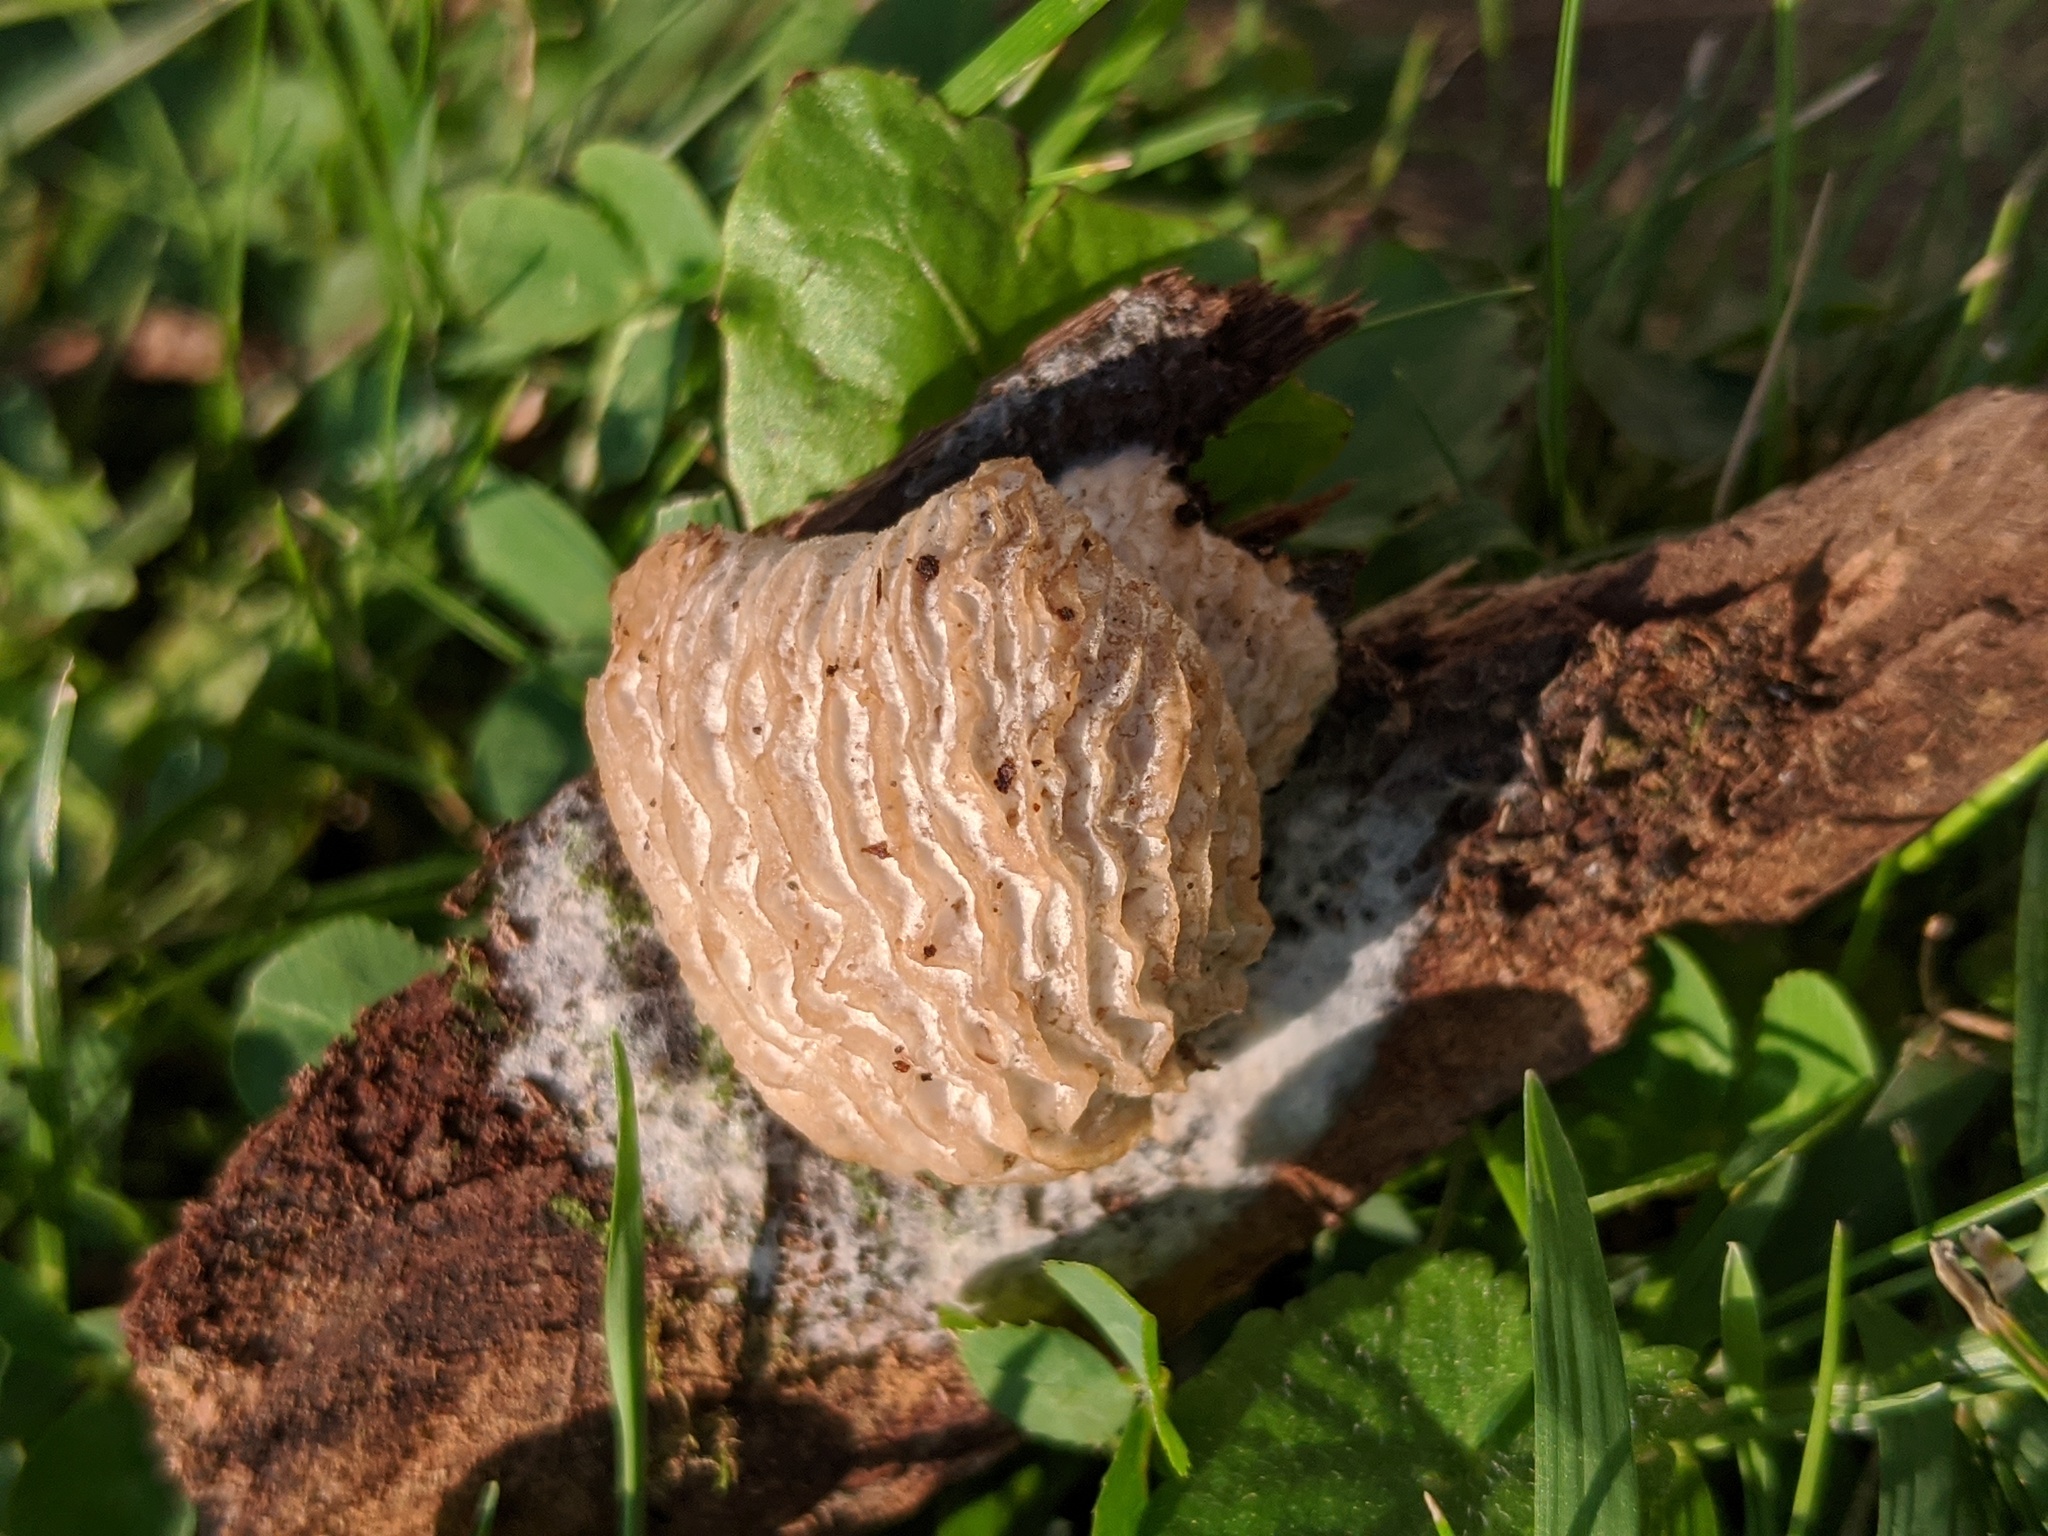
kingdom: Fungi
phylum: Ascomycota
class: Sordariomycetes
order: Hypocreales
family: Bionectriaceae
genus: Nectriopsis
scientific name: Nectriopsis tremellicola
